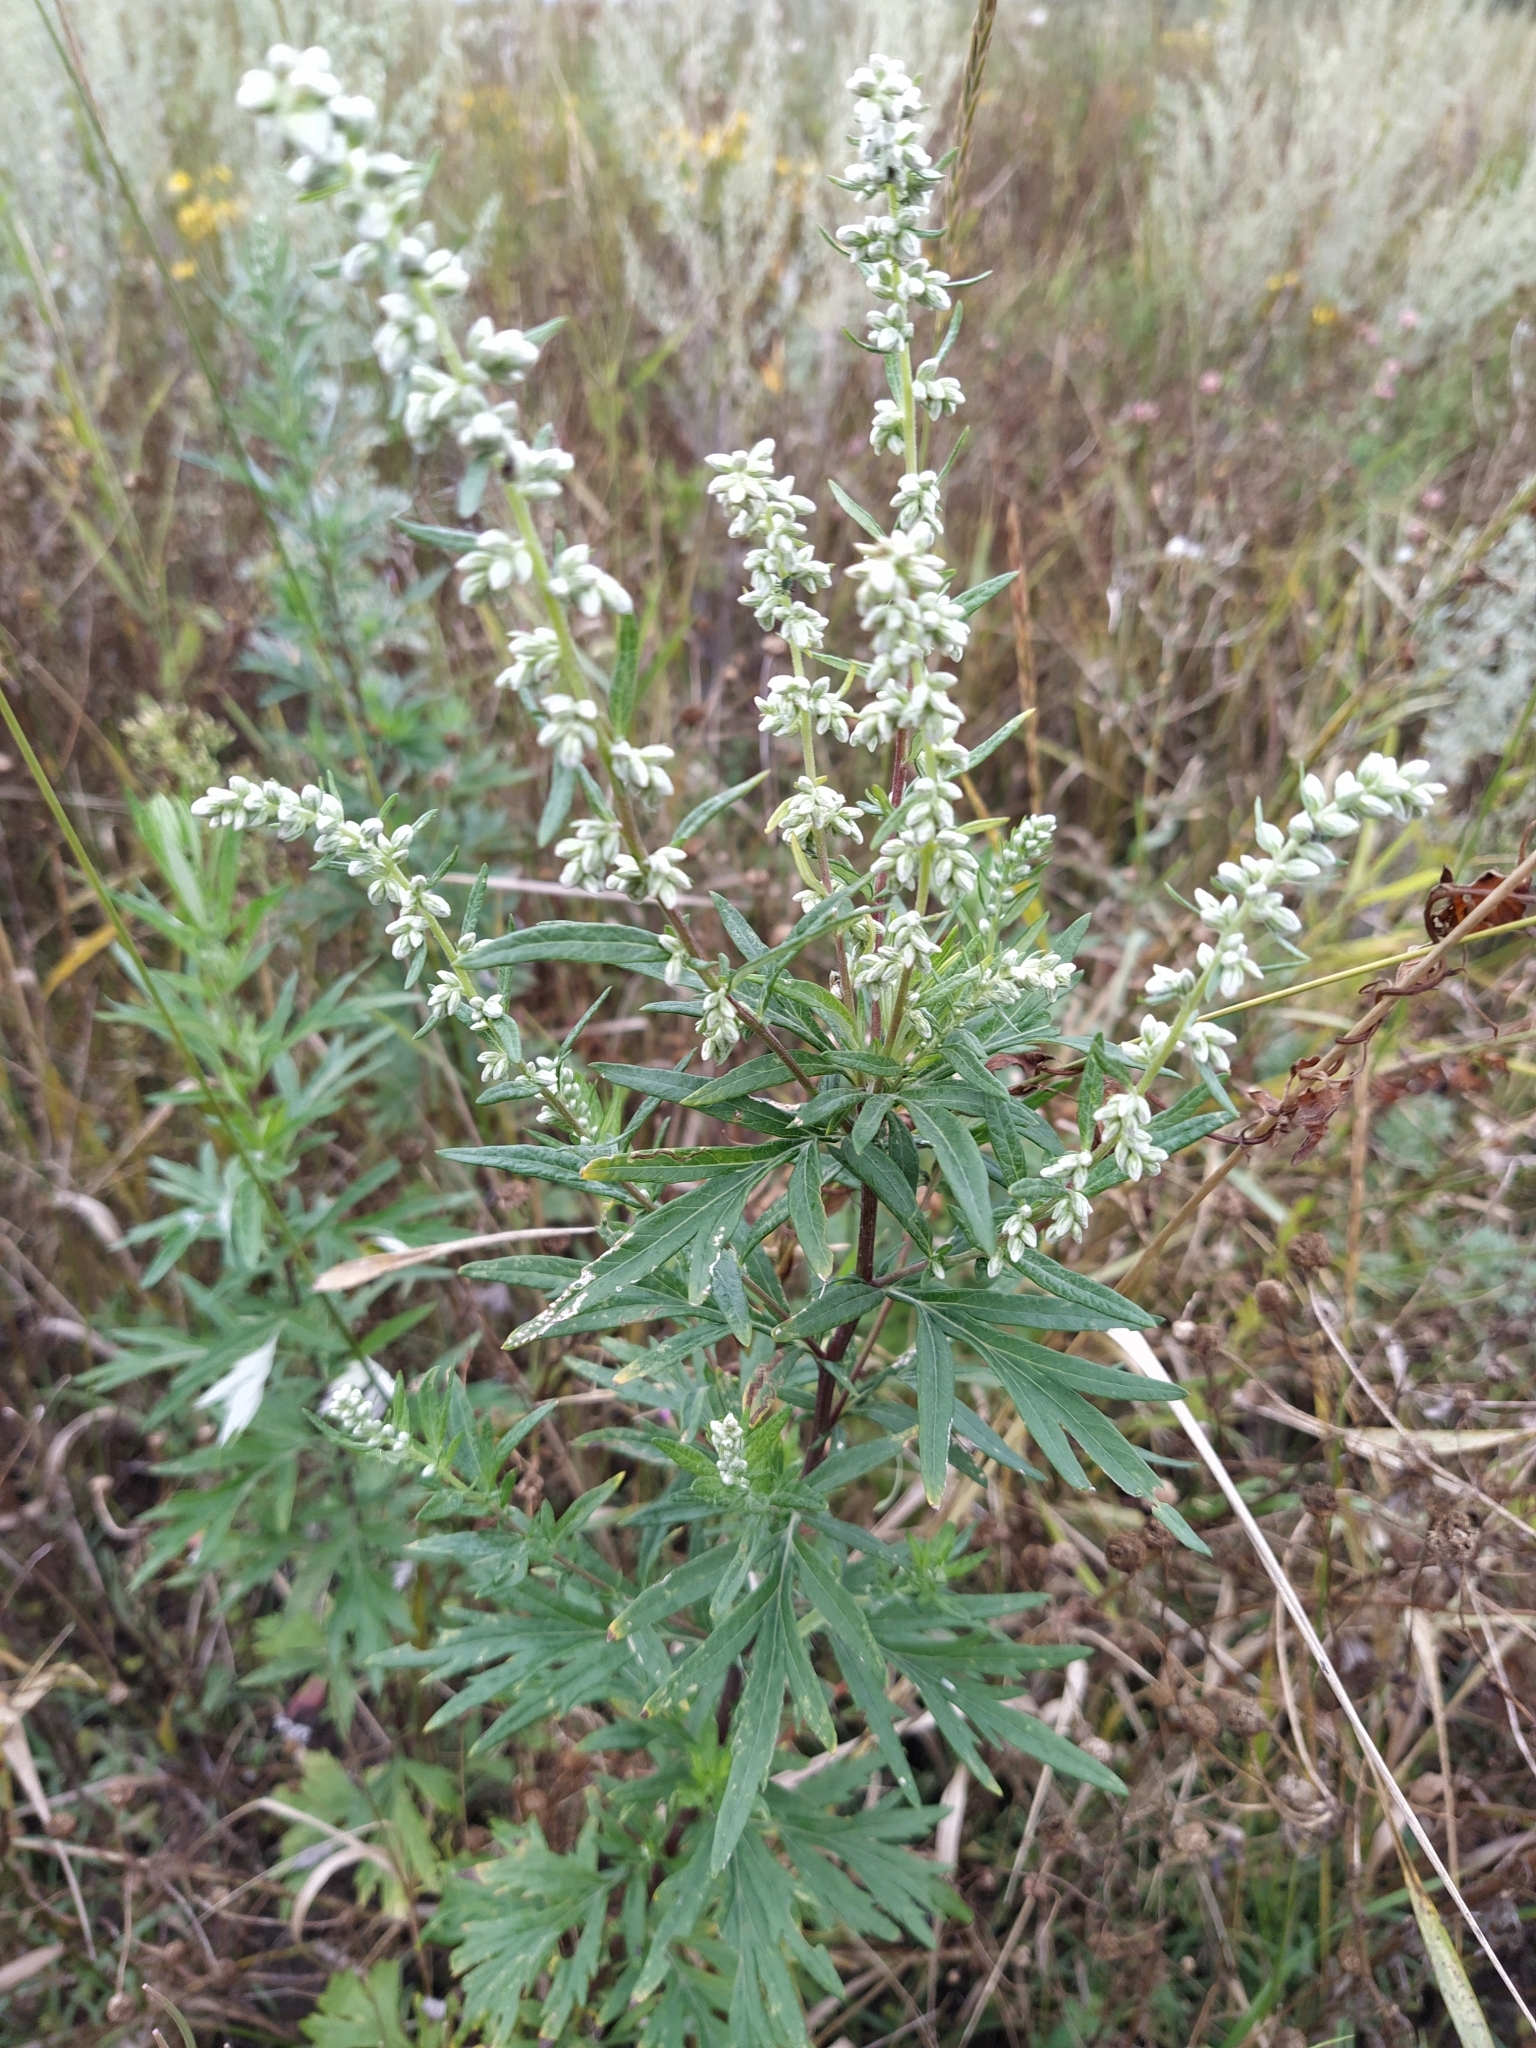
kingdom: Plantae
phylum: Tracheophyta
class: Magnoliopsida
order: Asterales
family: Asteraceae
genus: Artemisia
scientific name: Artemisia vulgaris
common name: Mugwort
